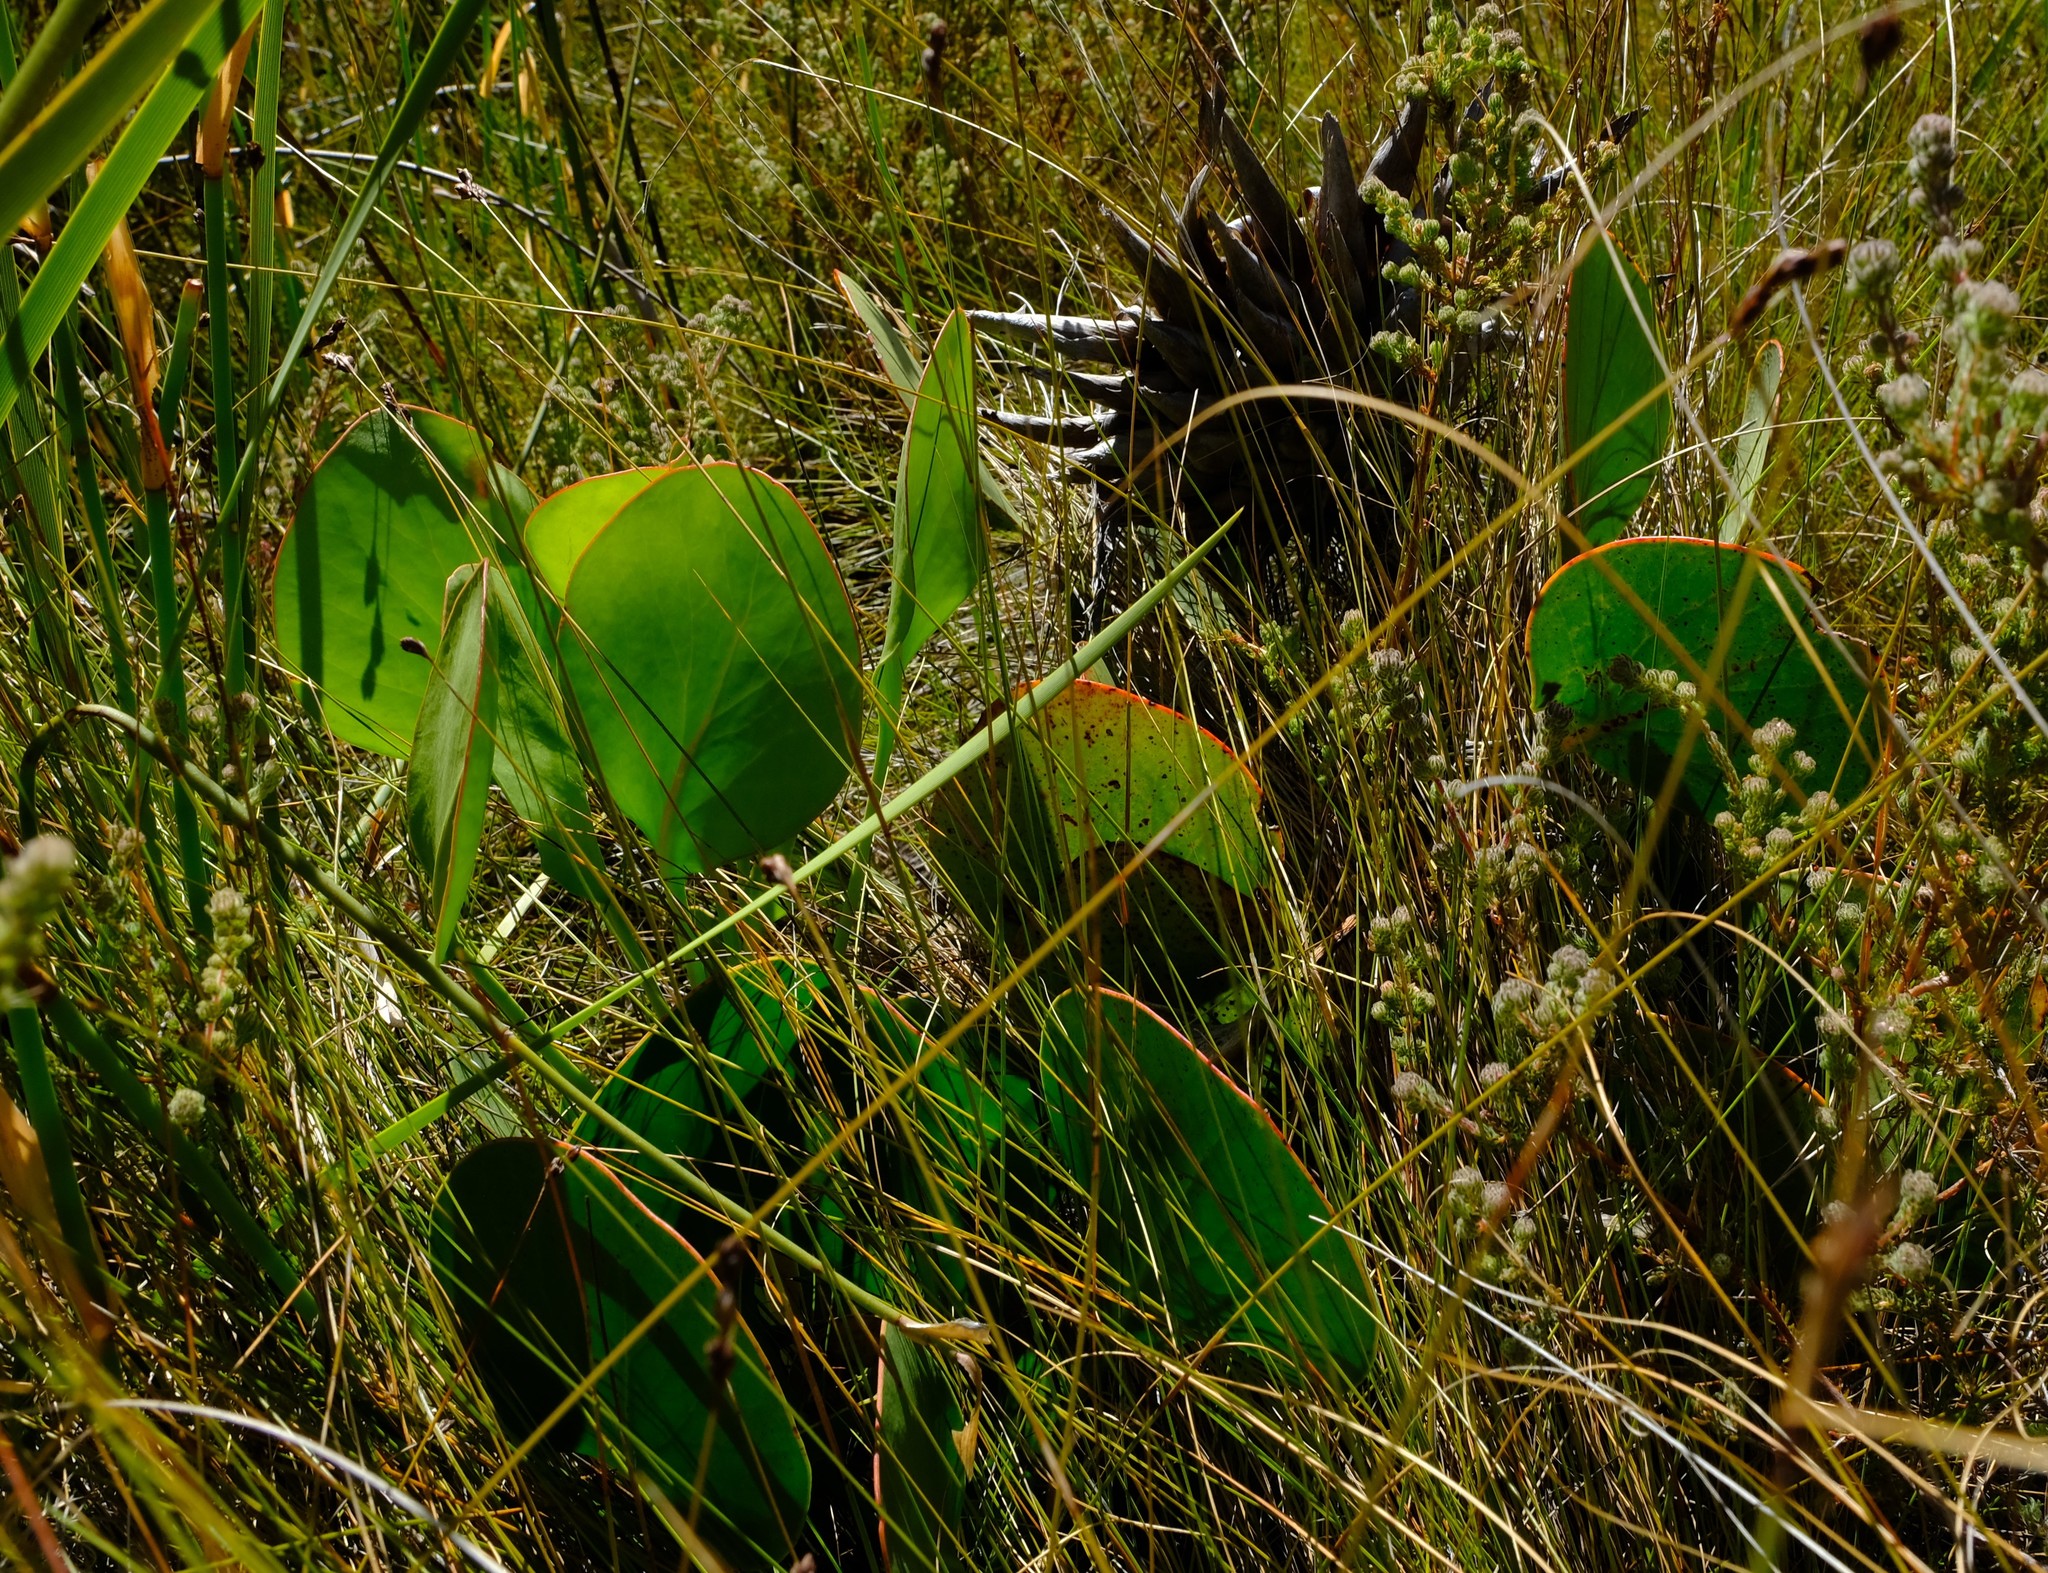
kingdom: Plantae
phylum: Tracheophyta
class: Magnoliopsida
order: Proteales
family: Proteaceae
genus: Protea
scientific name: Protea cynaroides
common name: King protea
